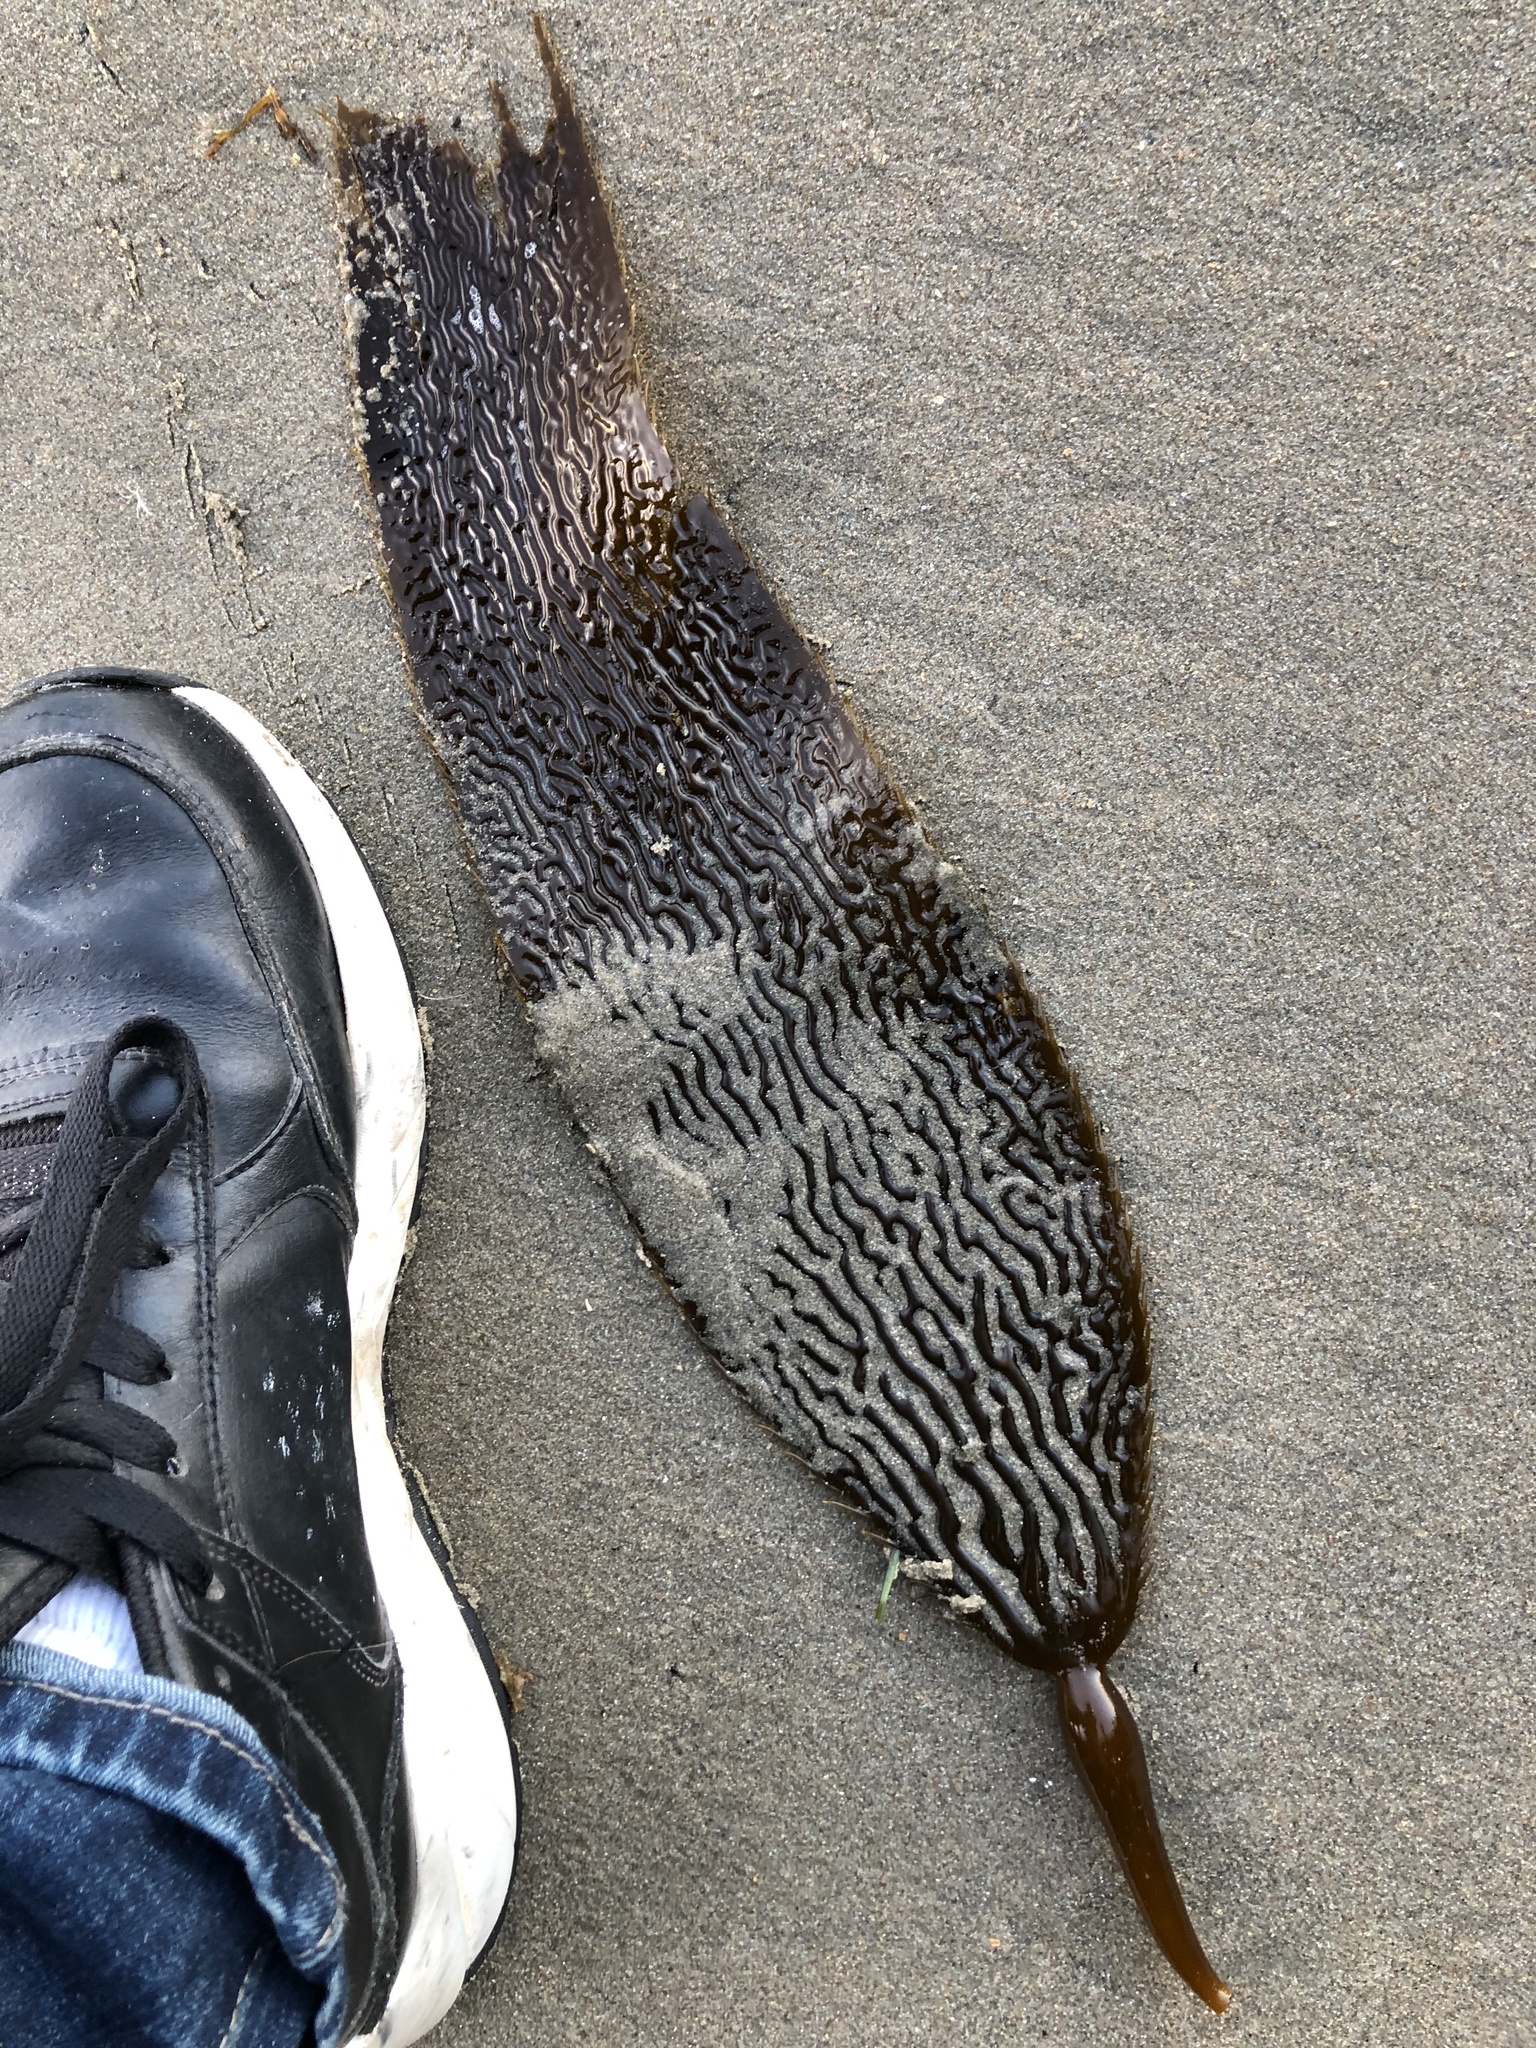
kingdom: Chromista
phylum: Ochrophyta
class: Phaeophyceae
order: Laminariales
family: Laminariaceae
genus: Macrocystis
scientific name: Macrocystis pyrifera
